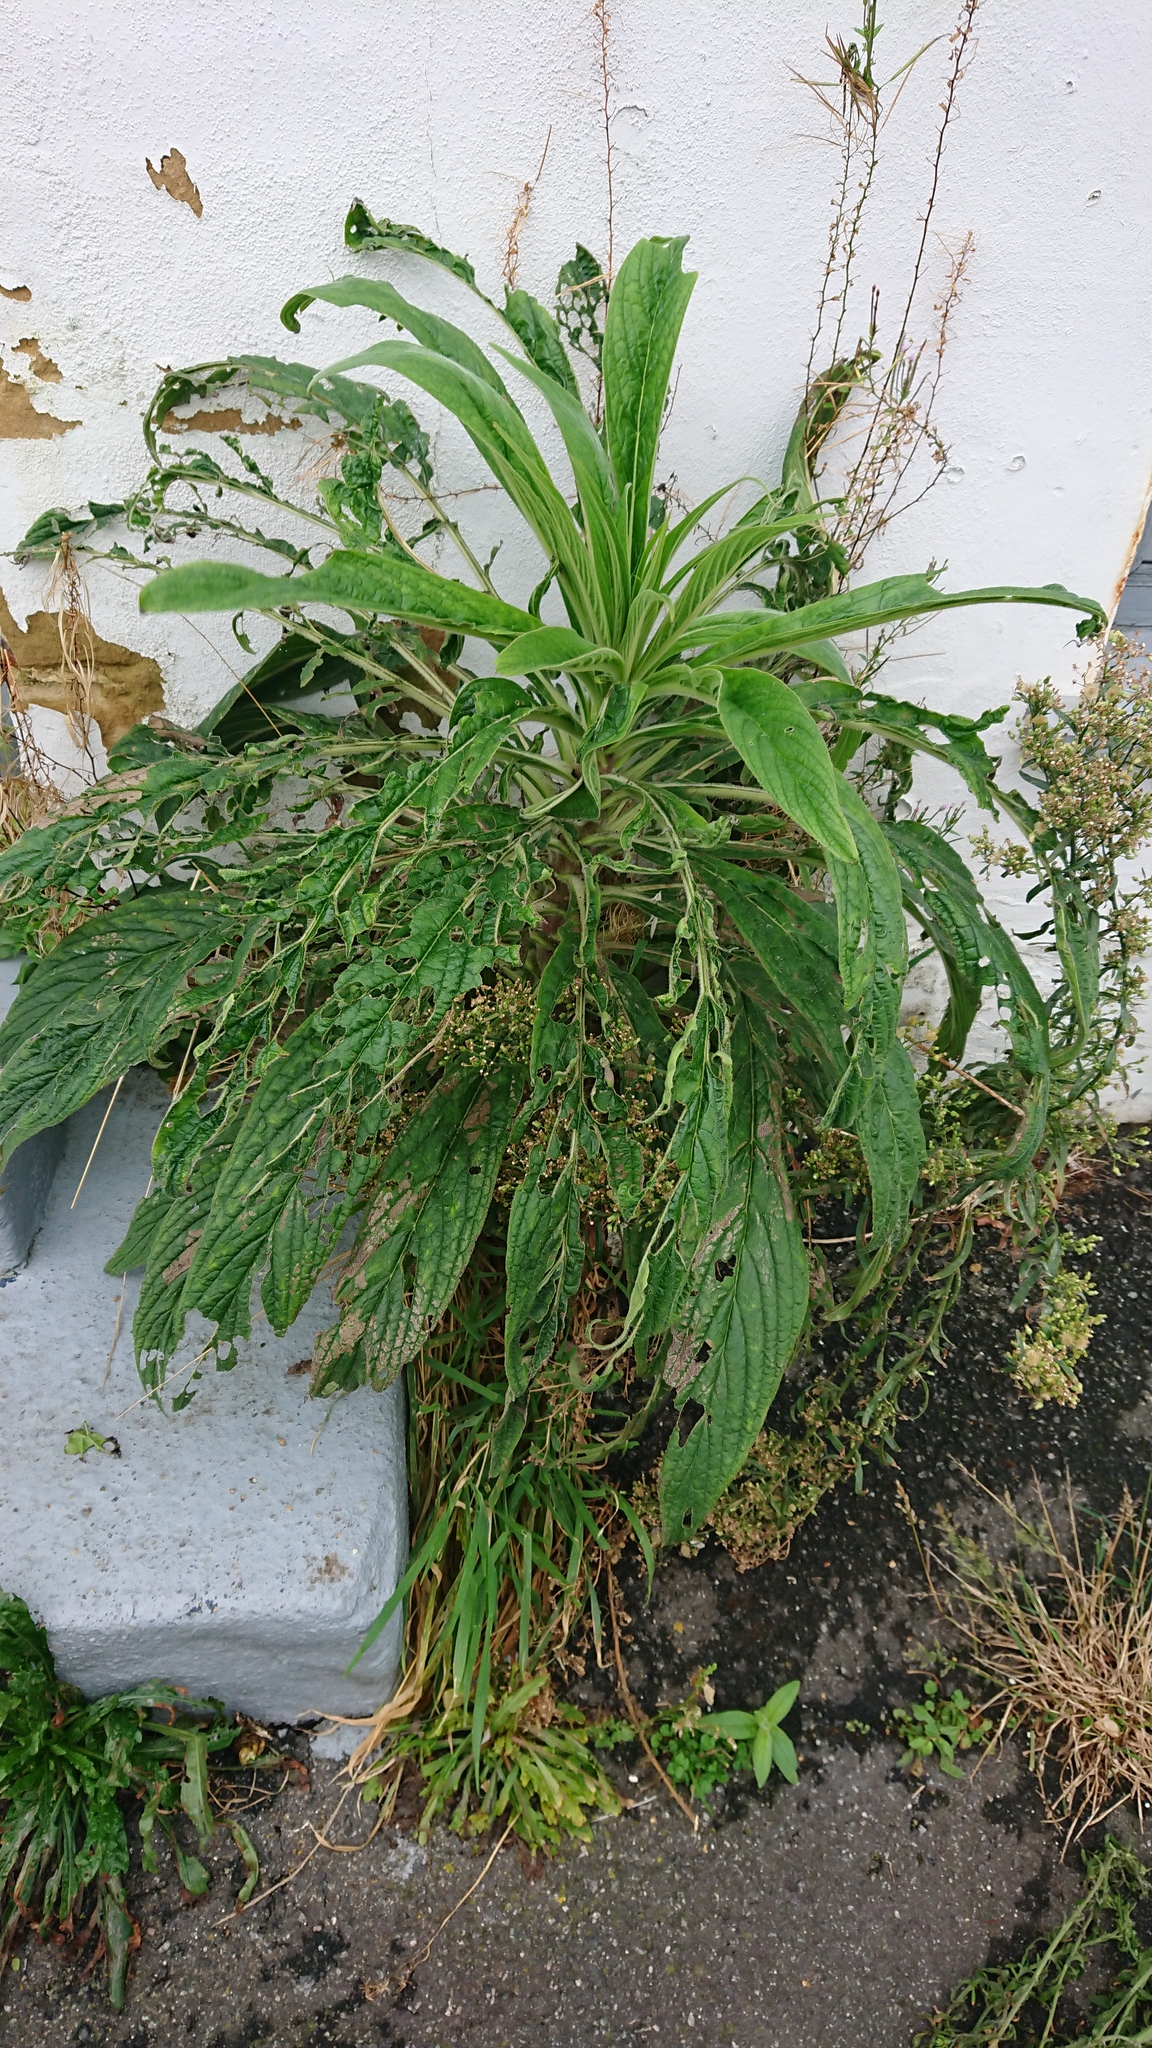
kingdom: Plantae
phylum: Tracheophyta
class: Magnoliopsida
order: Boraginales
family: Boraginaceae
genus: Echium
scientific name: Echium pininana
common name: Giant viper's-bugloss
